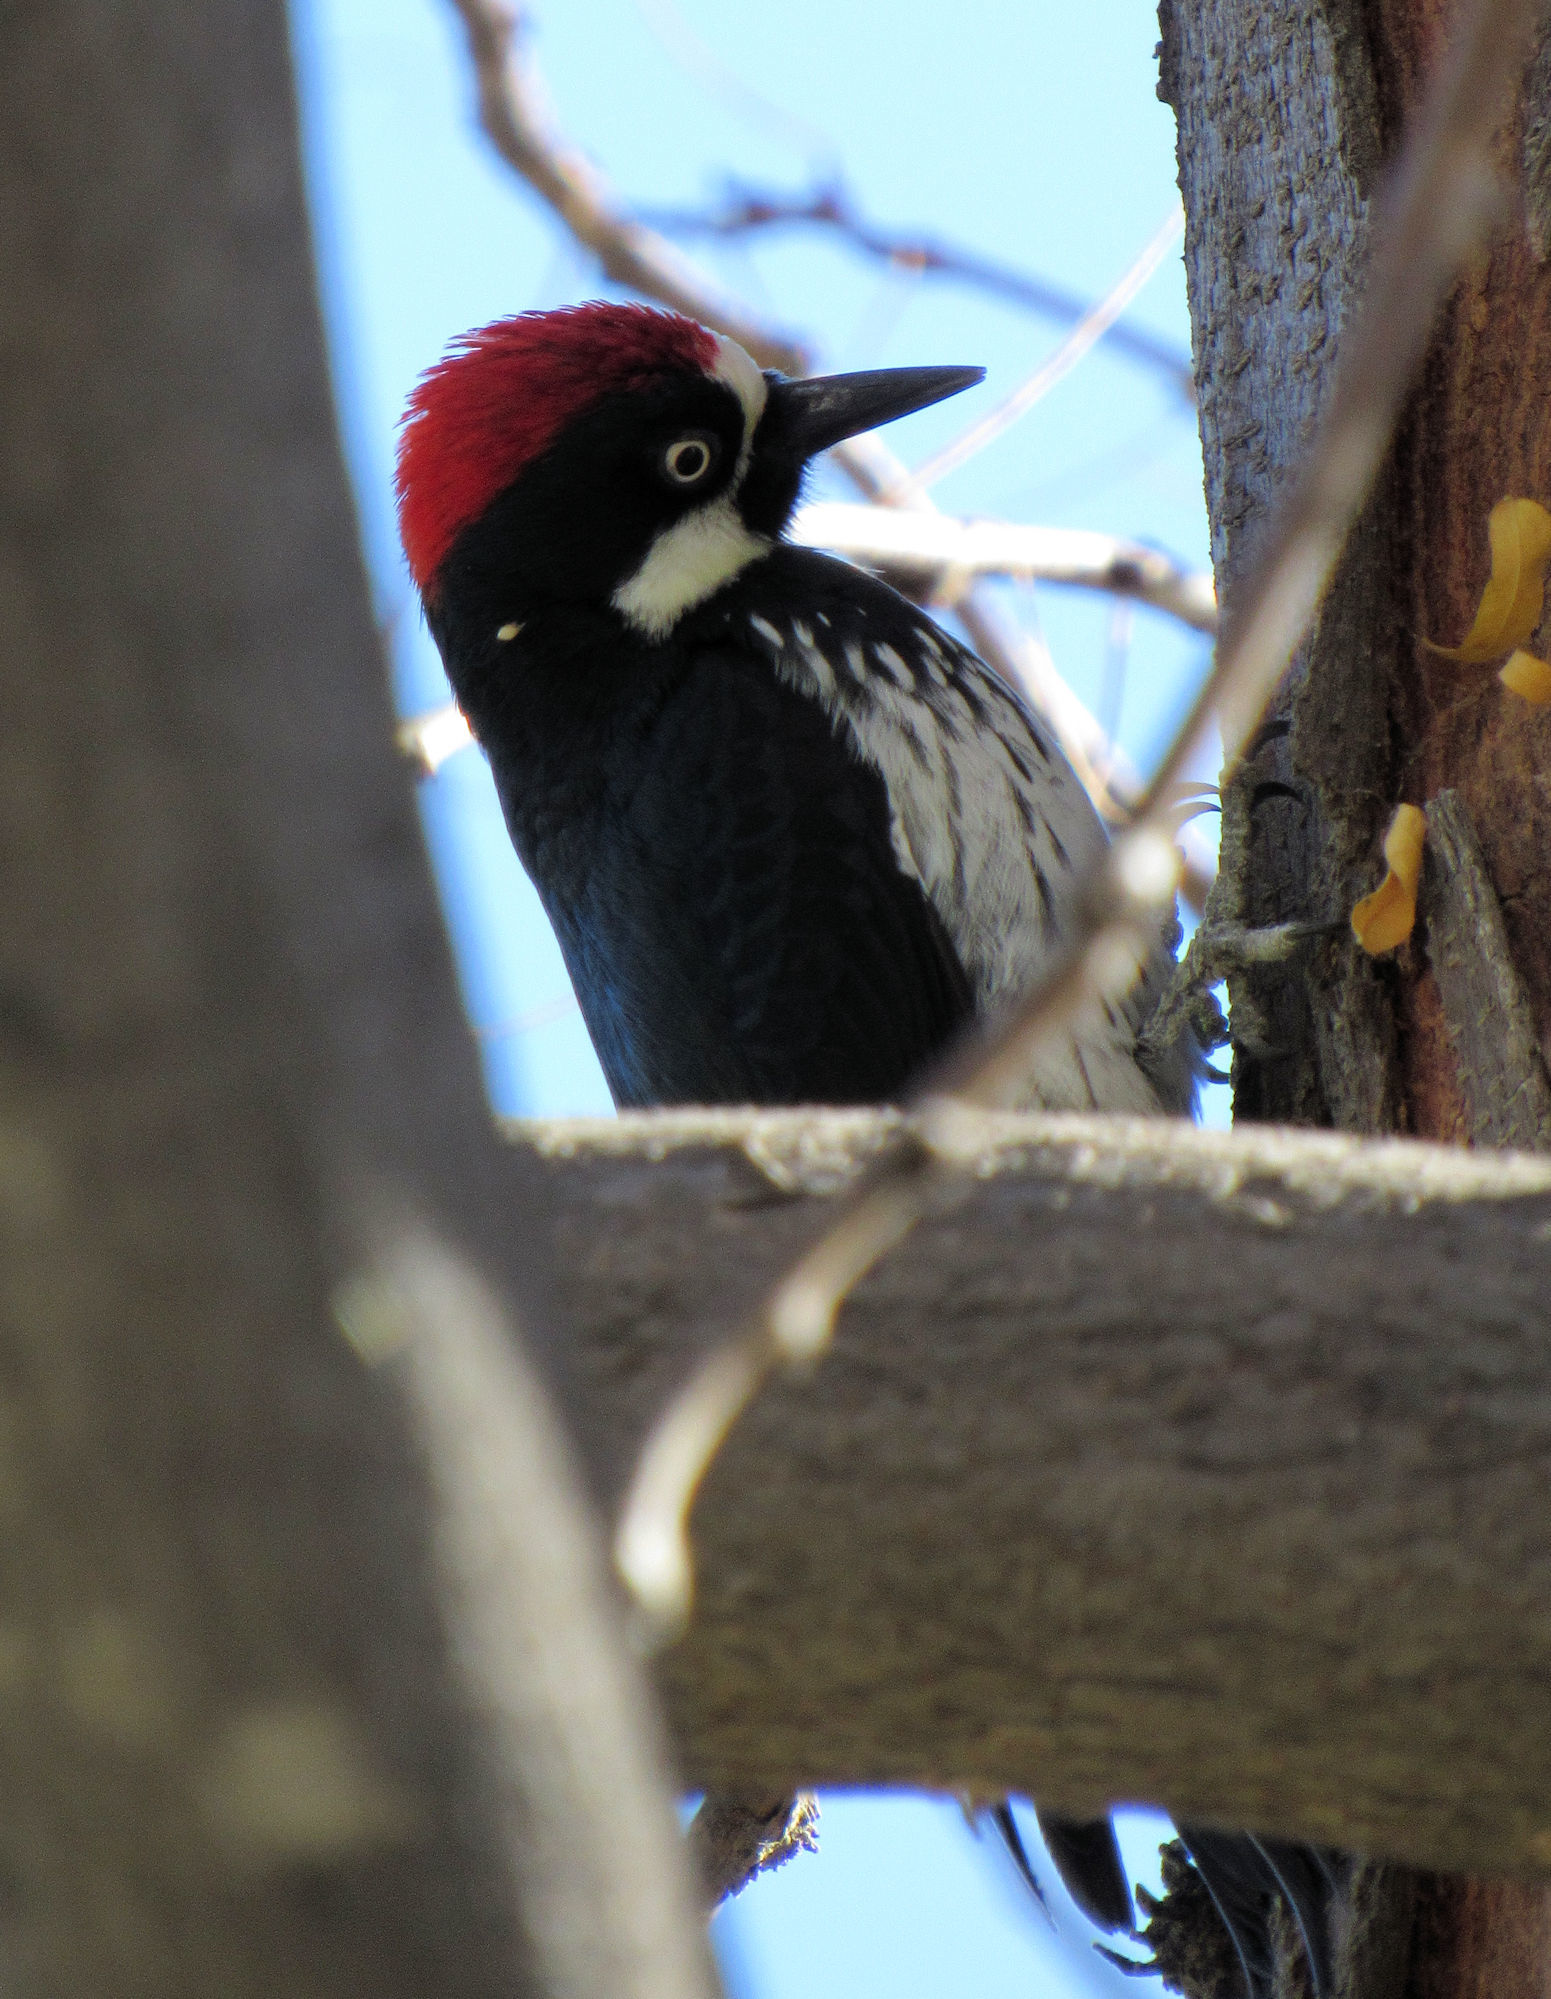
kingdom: Animalia
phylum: Chordata
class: Aves
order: Piciformes
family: Picidae
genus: Melanerpes
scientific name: Melanerpes formicivorus
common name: Acorn woodpecker
